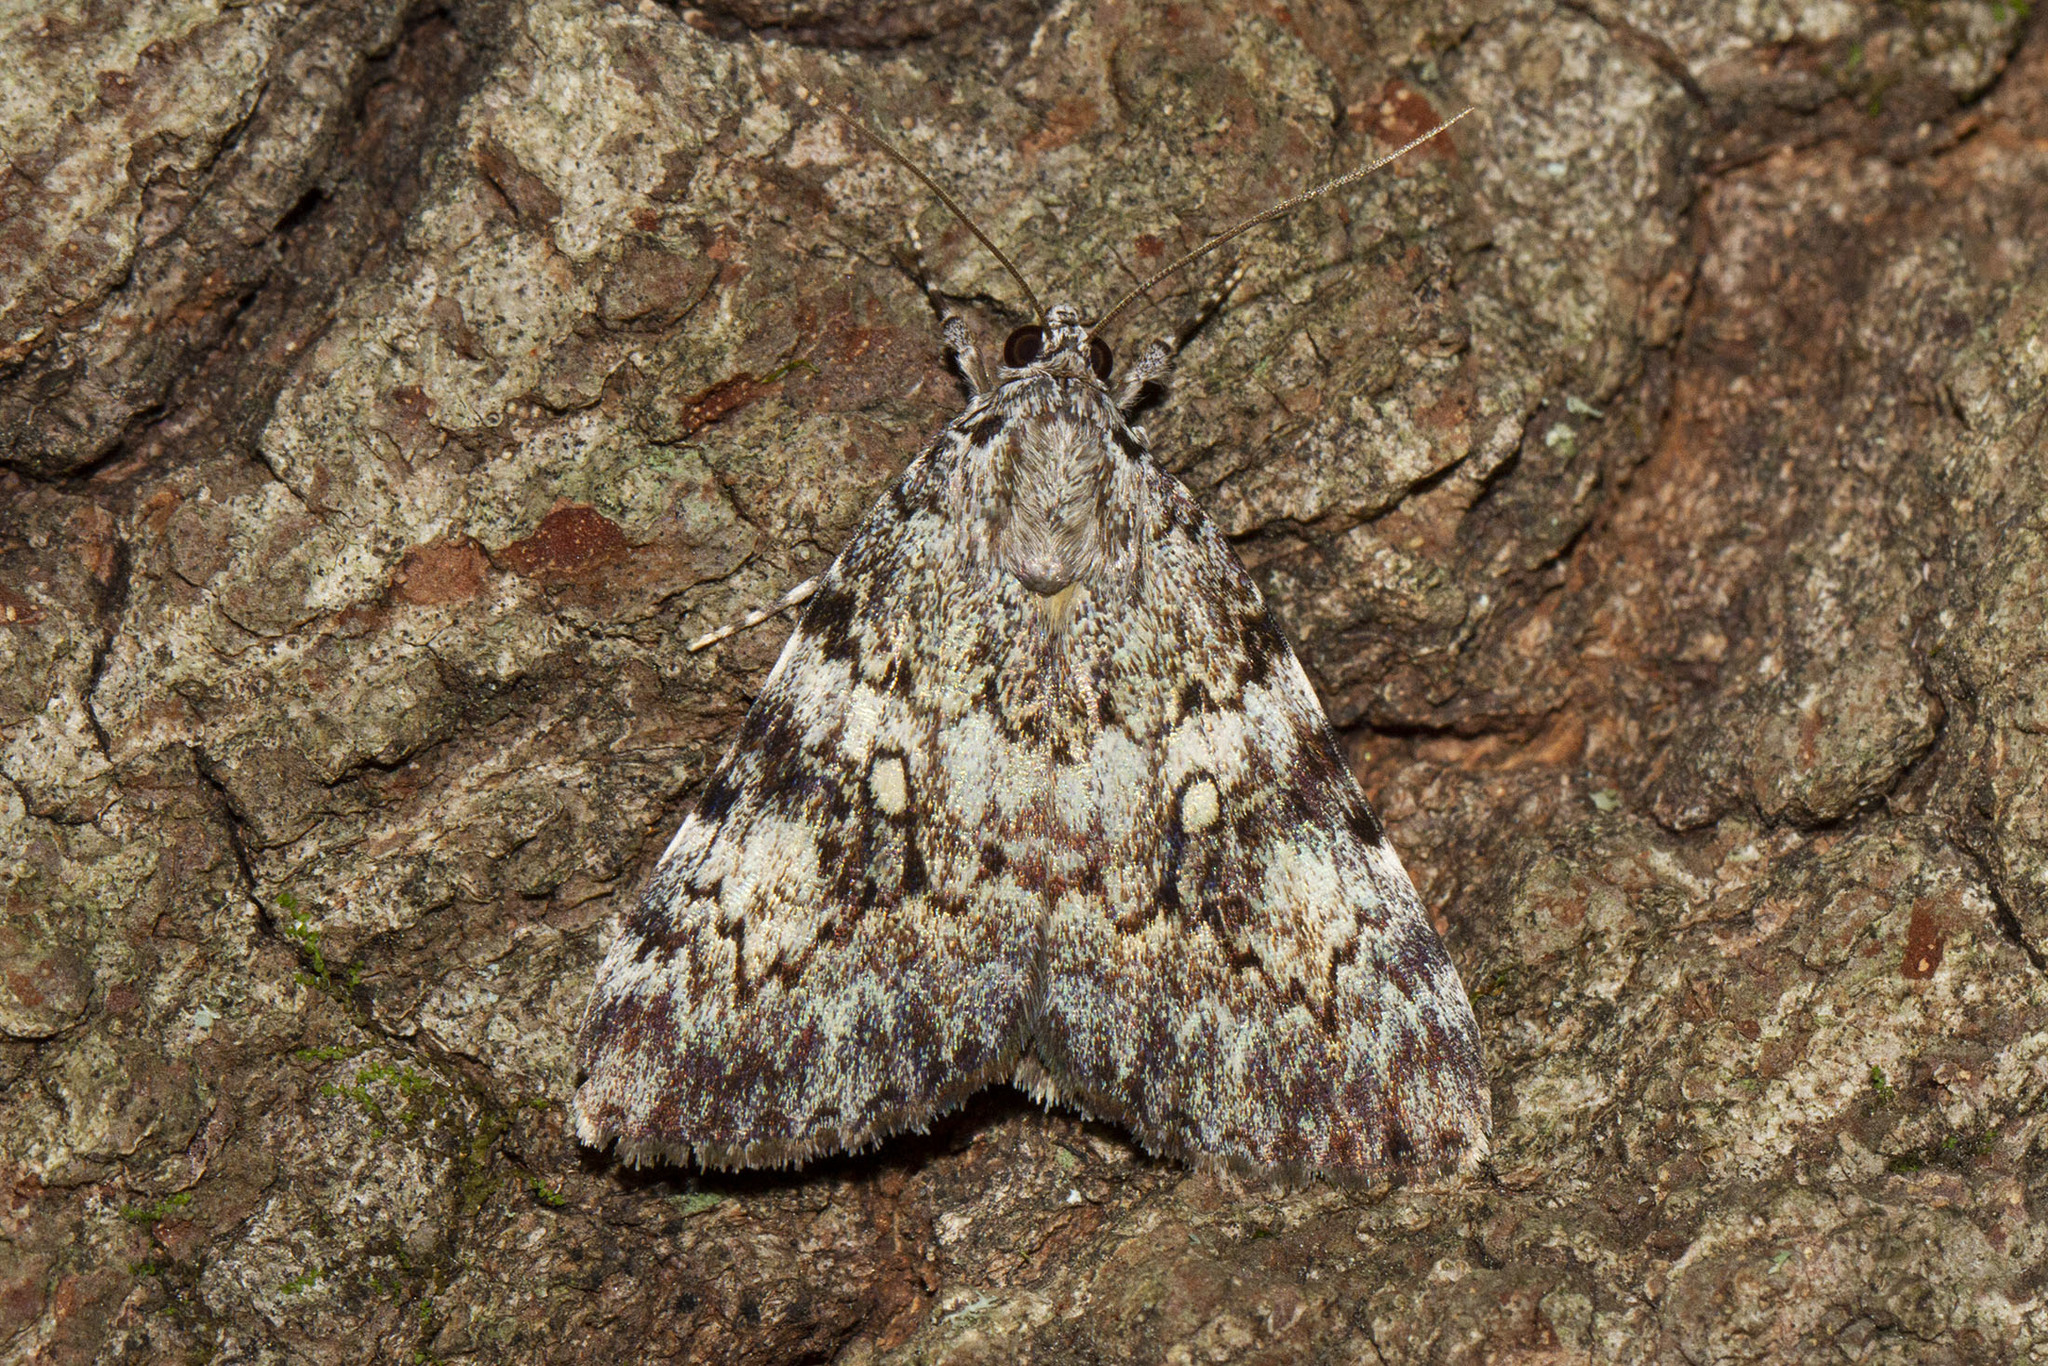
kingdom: Animalia
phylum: Arthropoda
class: Insecta
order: Lepidoptera
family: Erebidae
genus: Catocala
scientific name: Catocala lineella
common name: Little lined underwing
